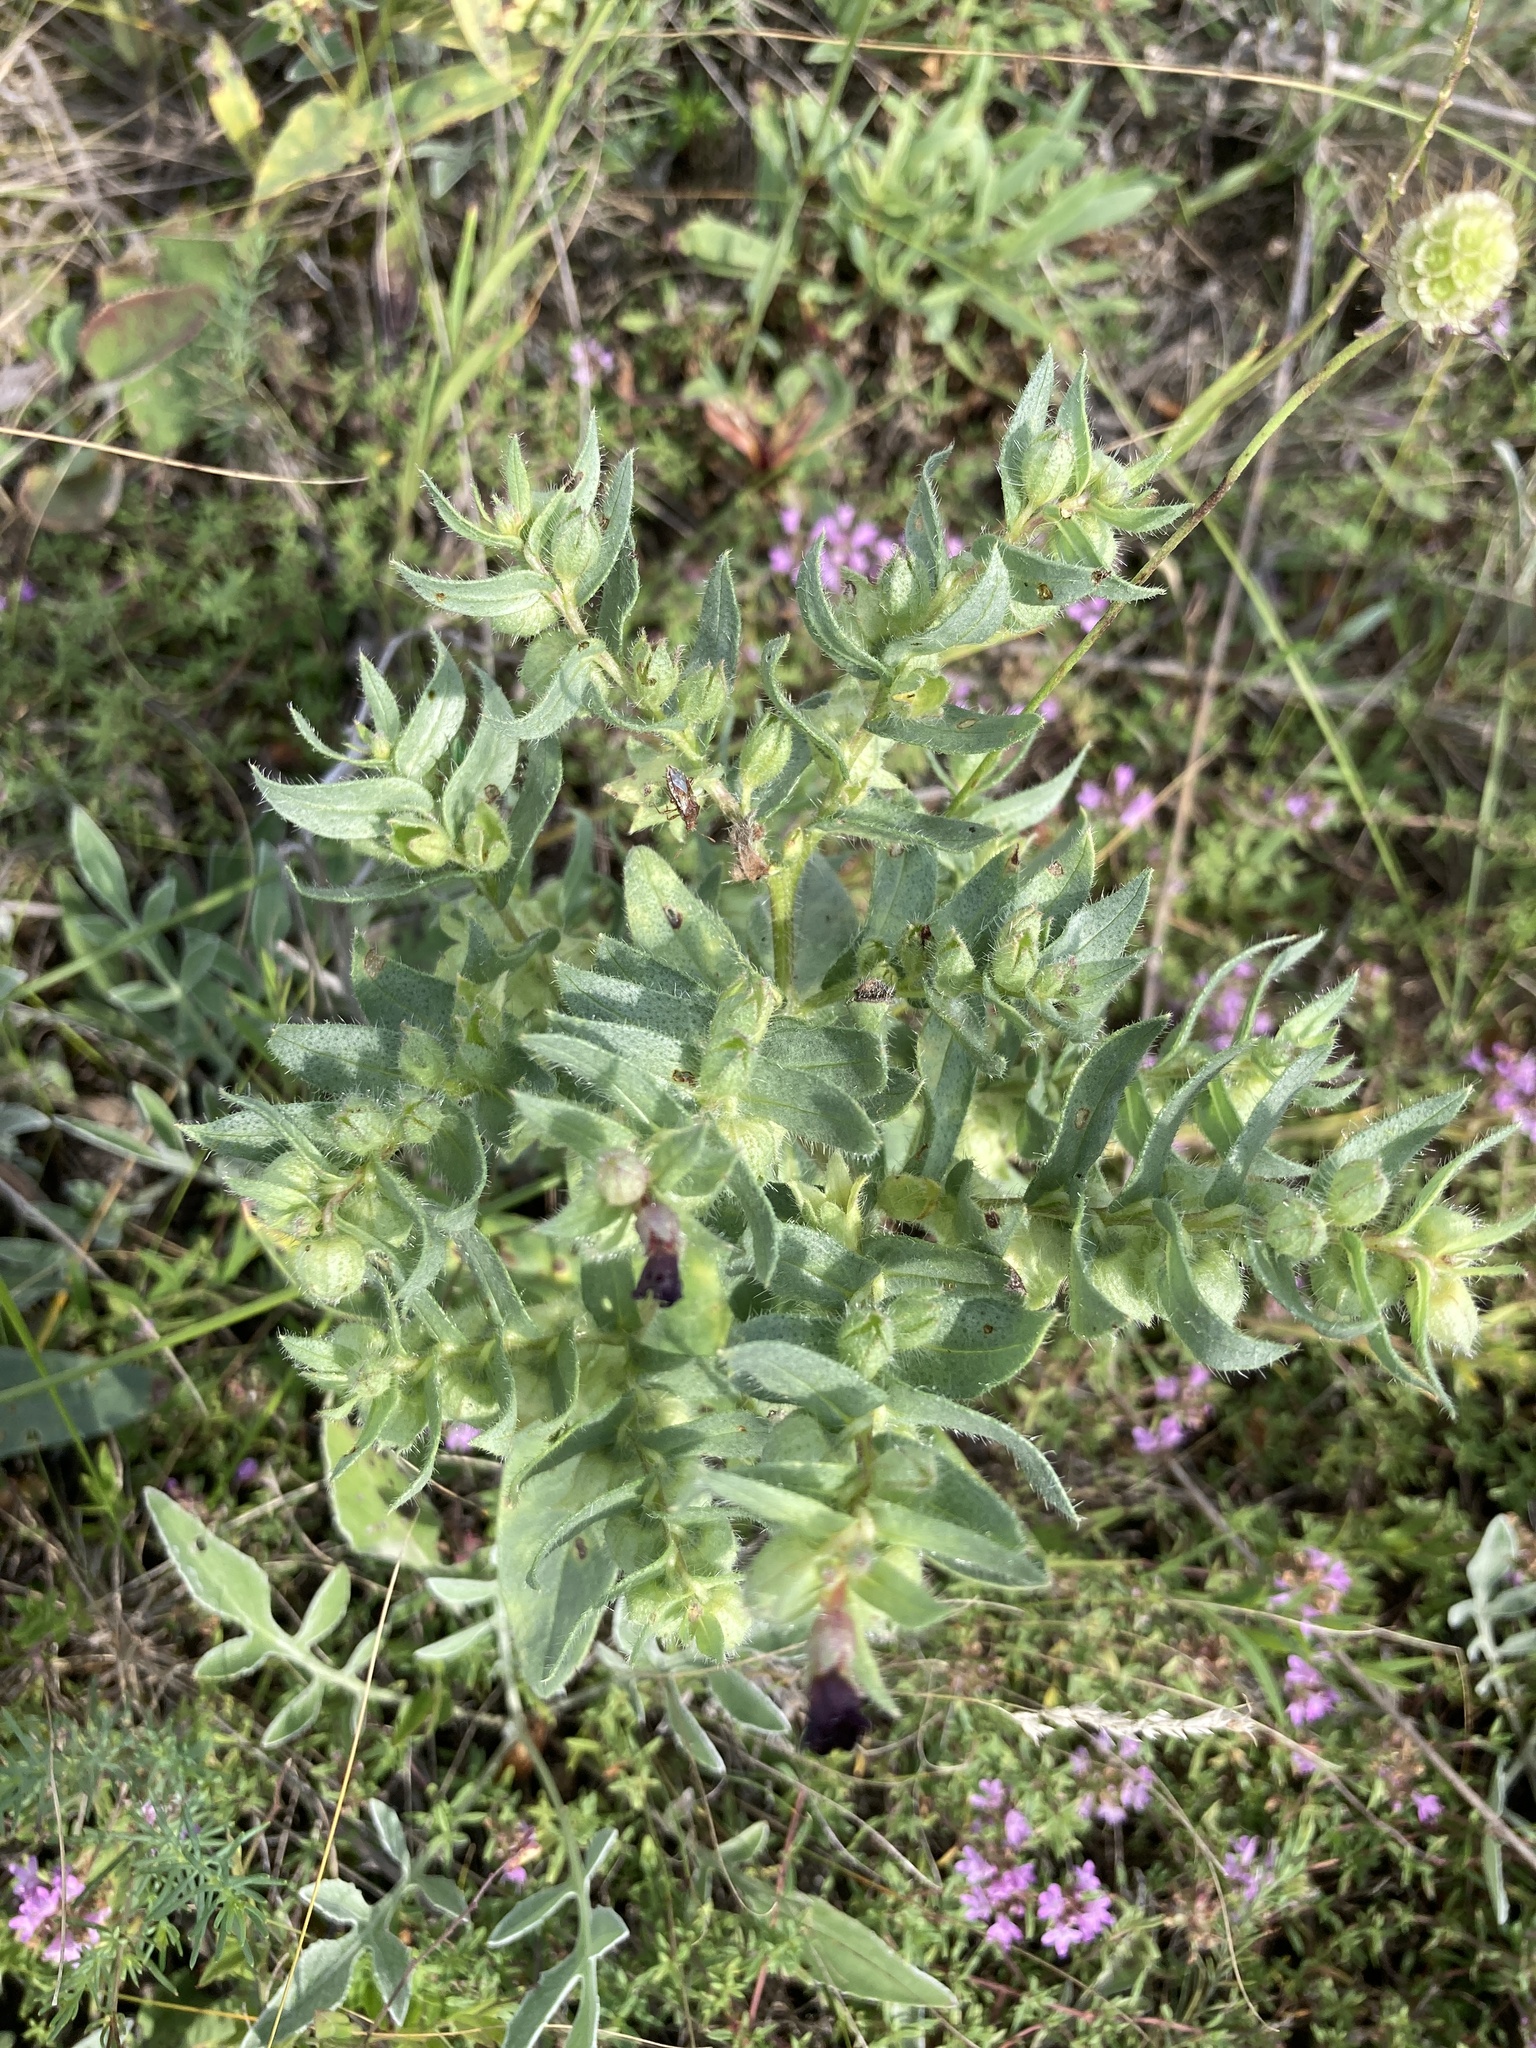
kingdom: Plantae
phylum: Tracheophyta
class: Magnoliopsida
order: Boraginales
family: Boraginaceae
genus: Nonea
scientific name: Nonea pulla
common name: Brown nonea
